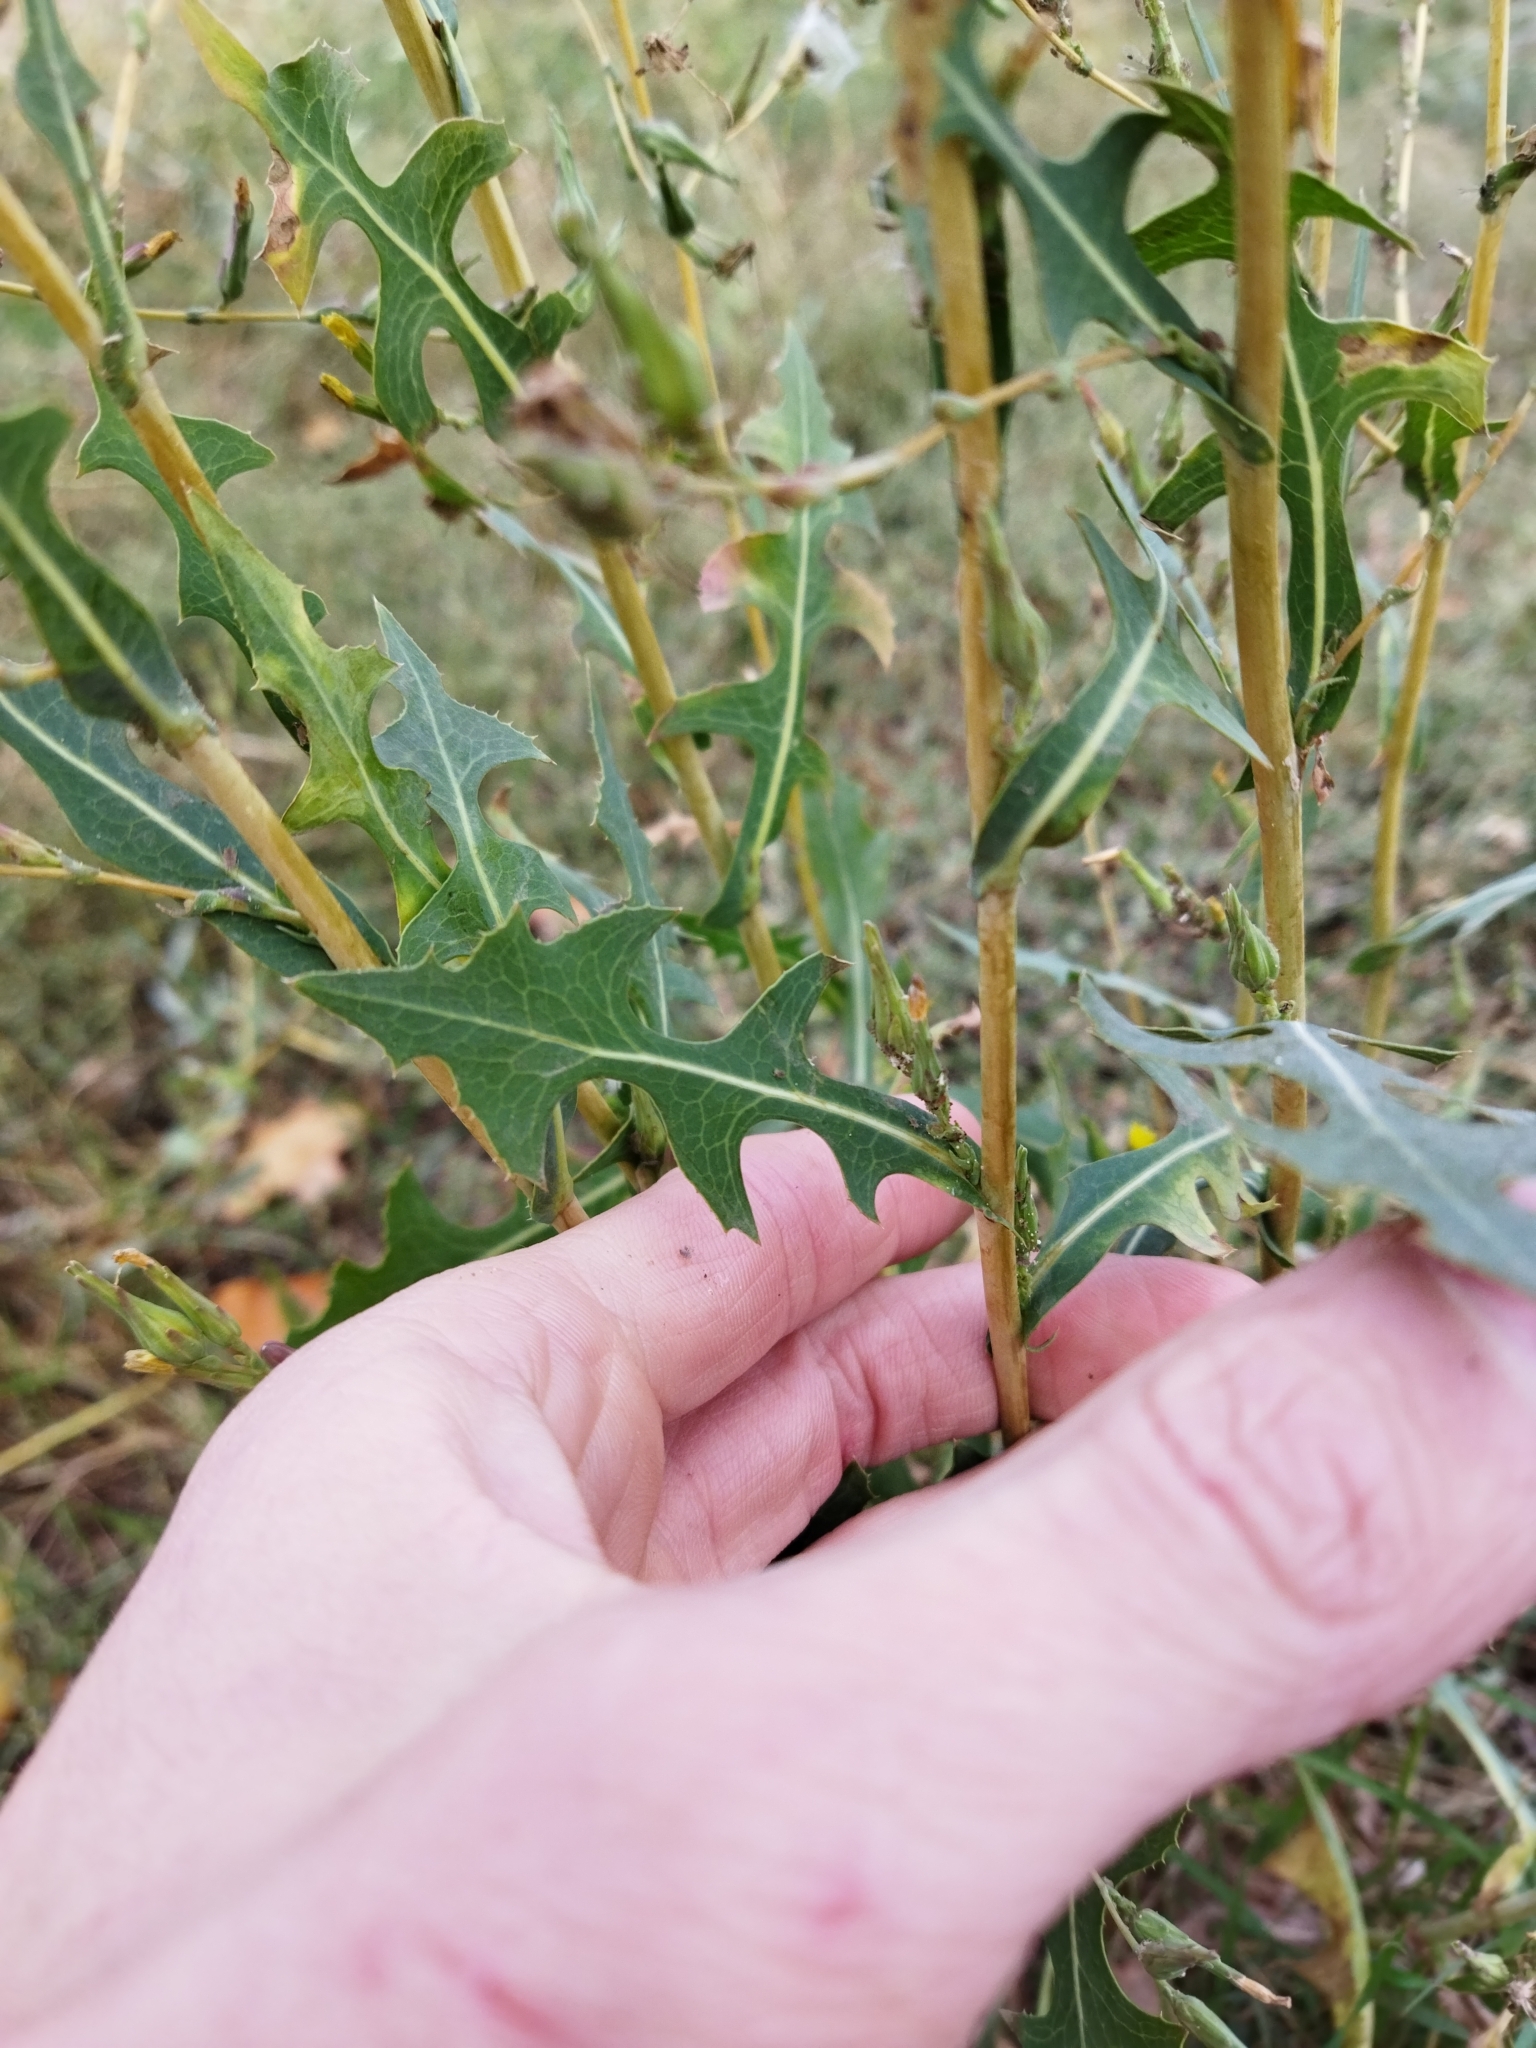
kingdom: Plantae
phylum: Tracheophyta
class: Magnoliopsida
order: Asterales
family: Asteraceae
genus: Lactuca
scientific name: Lactuca serriola
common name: Prickly lettuce
